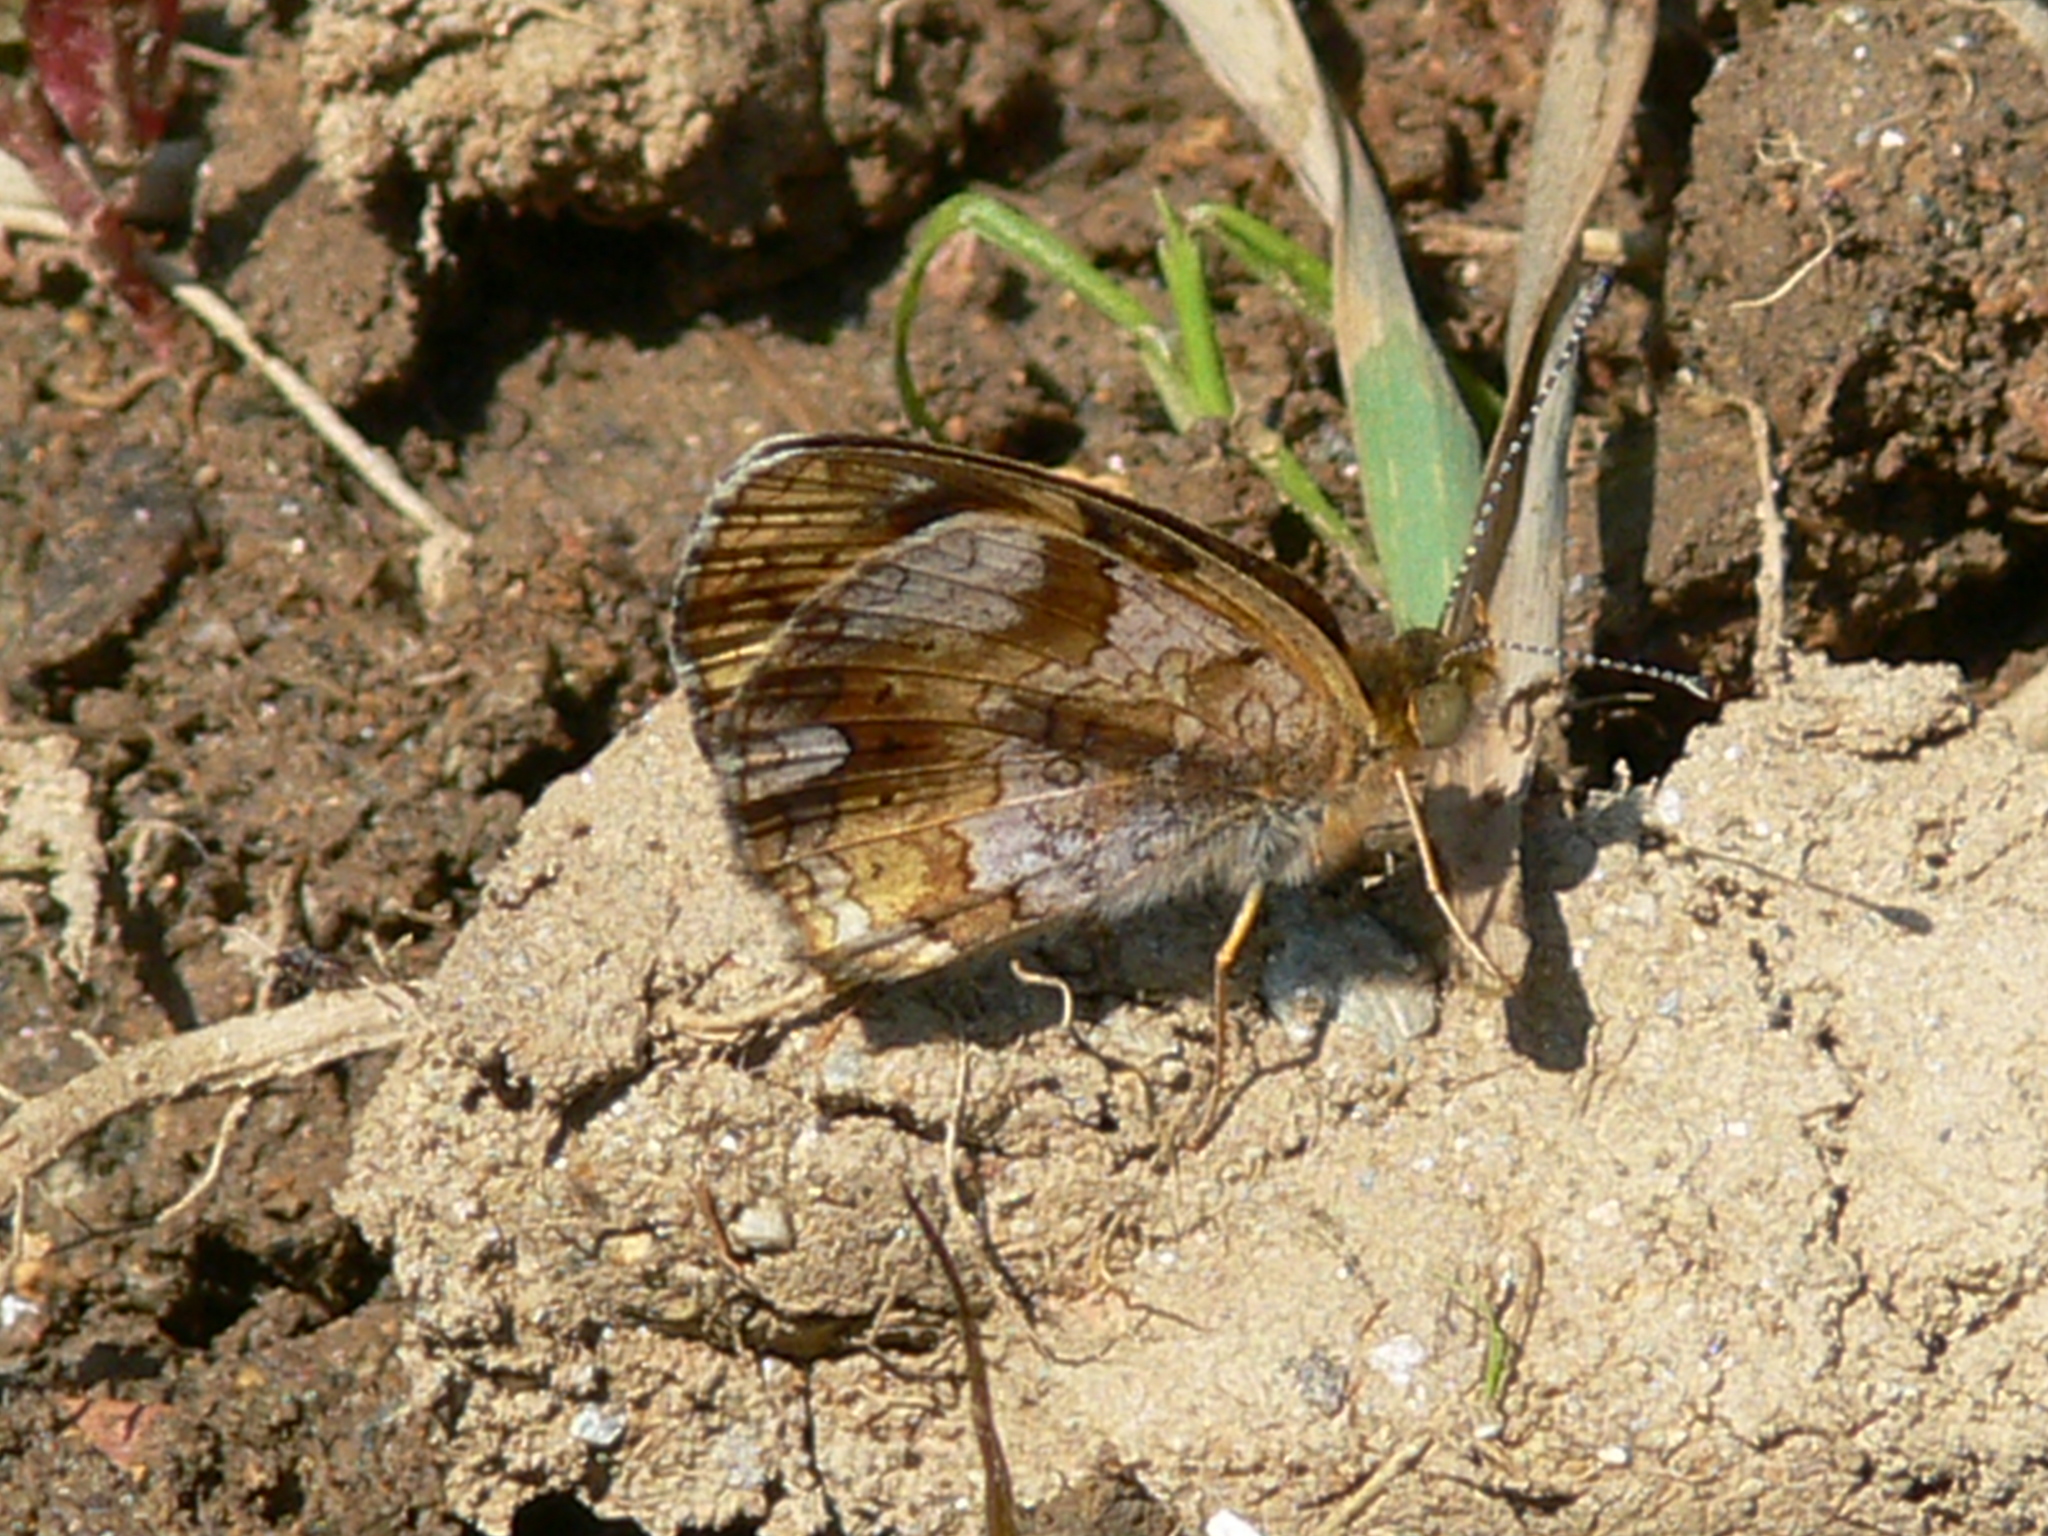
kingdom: Animalia
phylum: Arthropoda
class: Insecta
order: Lepidoptera
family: Nymphalidae
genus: Phyciodes
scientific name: Phyciodes tharos
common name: Pearl crescent
